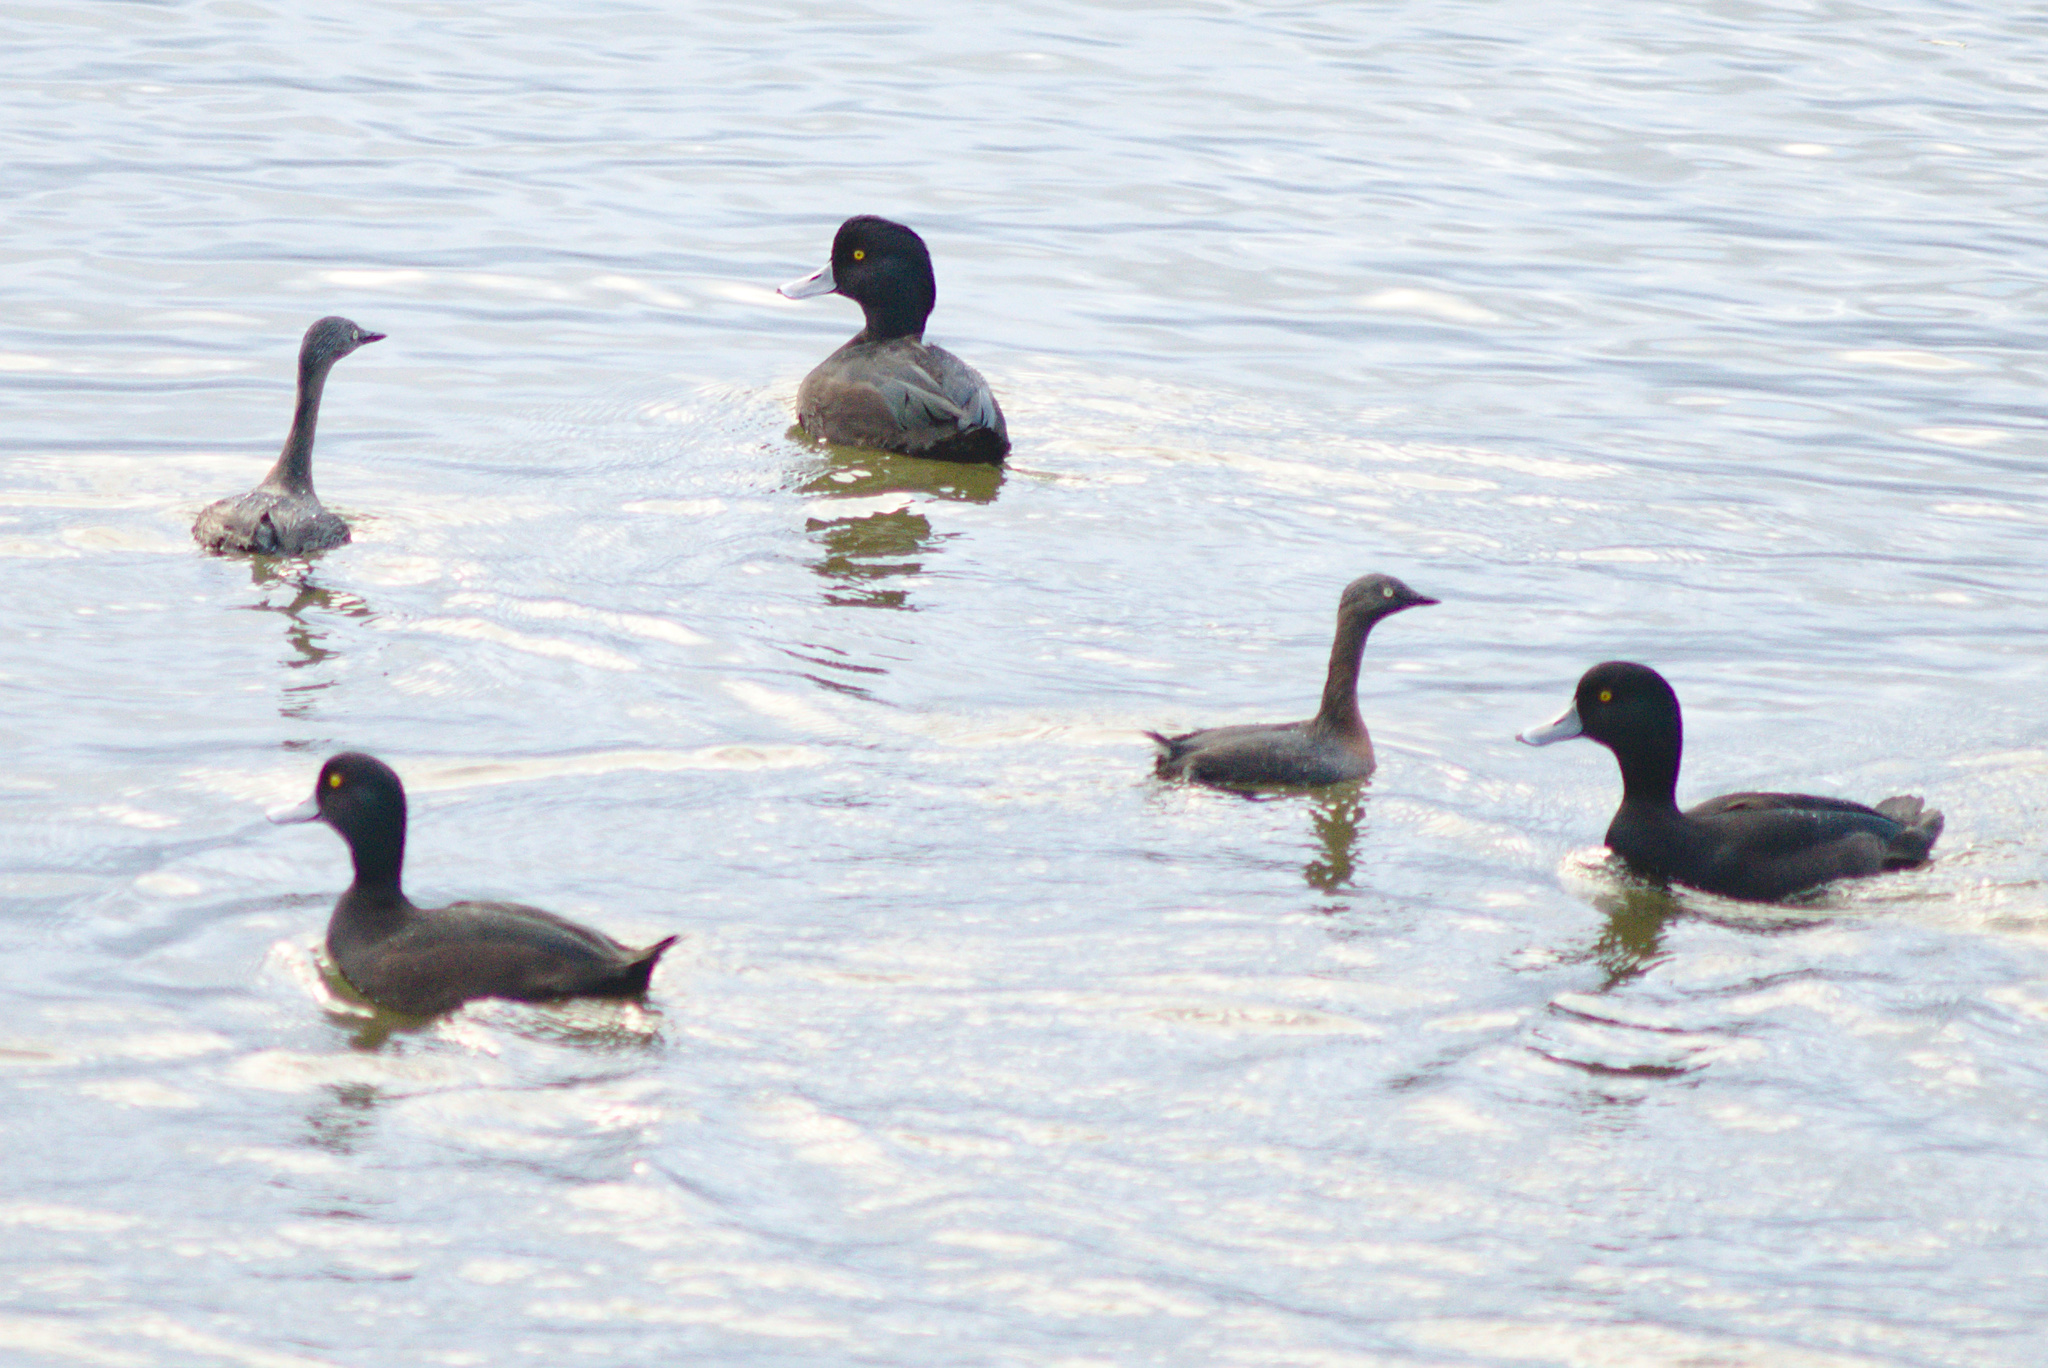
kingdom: Animalia
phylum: Chordata
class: Aves
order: Podicipediformes
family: Podicipedidae
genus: Poliocephalus
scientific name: Poliocephalus rufopectus
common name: New zealand grebe
